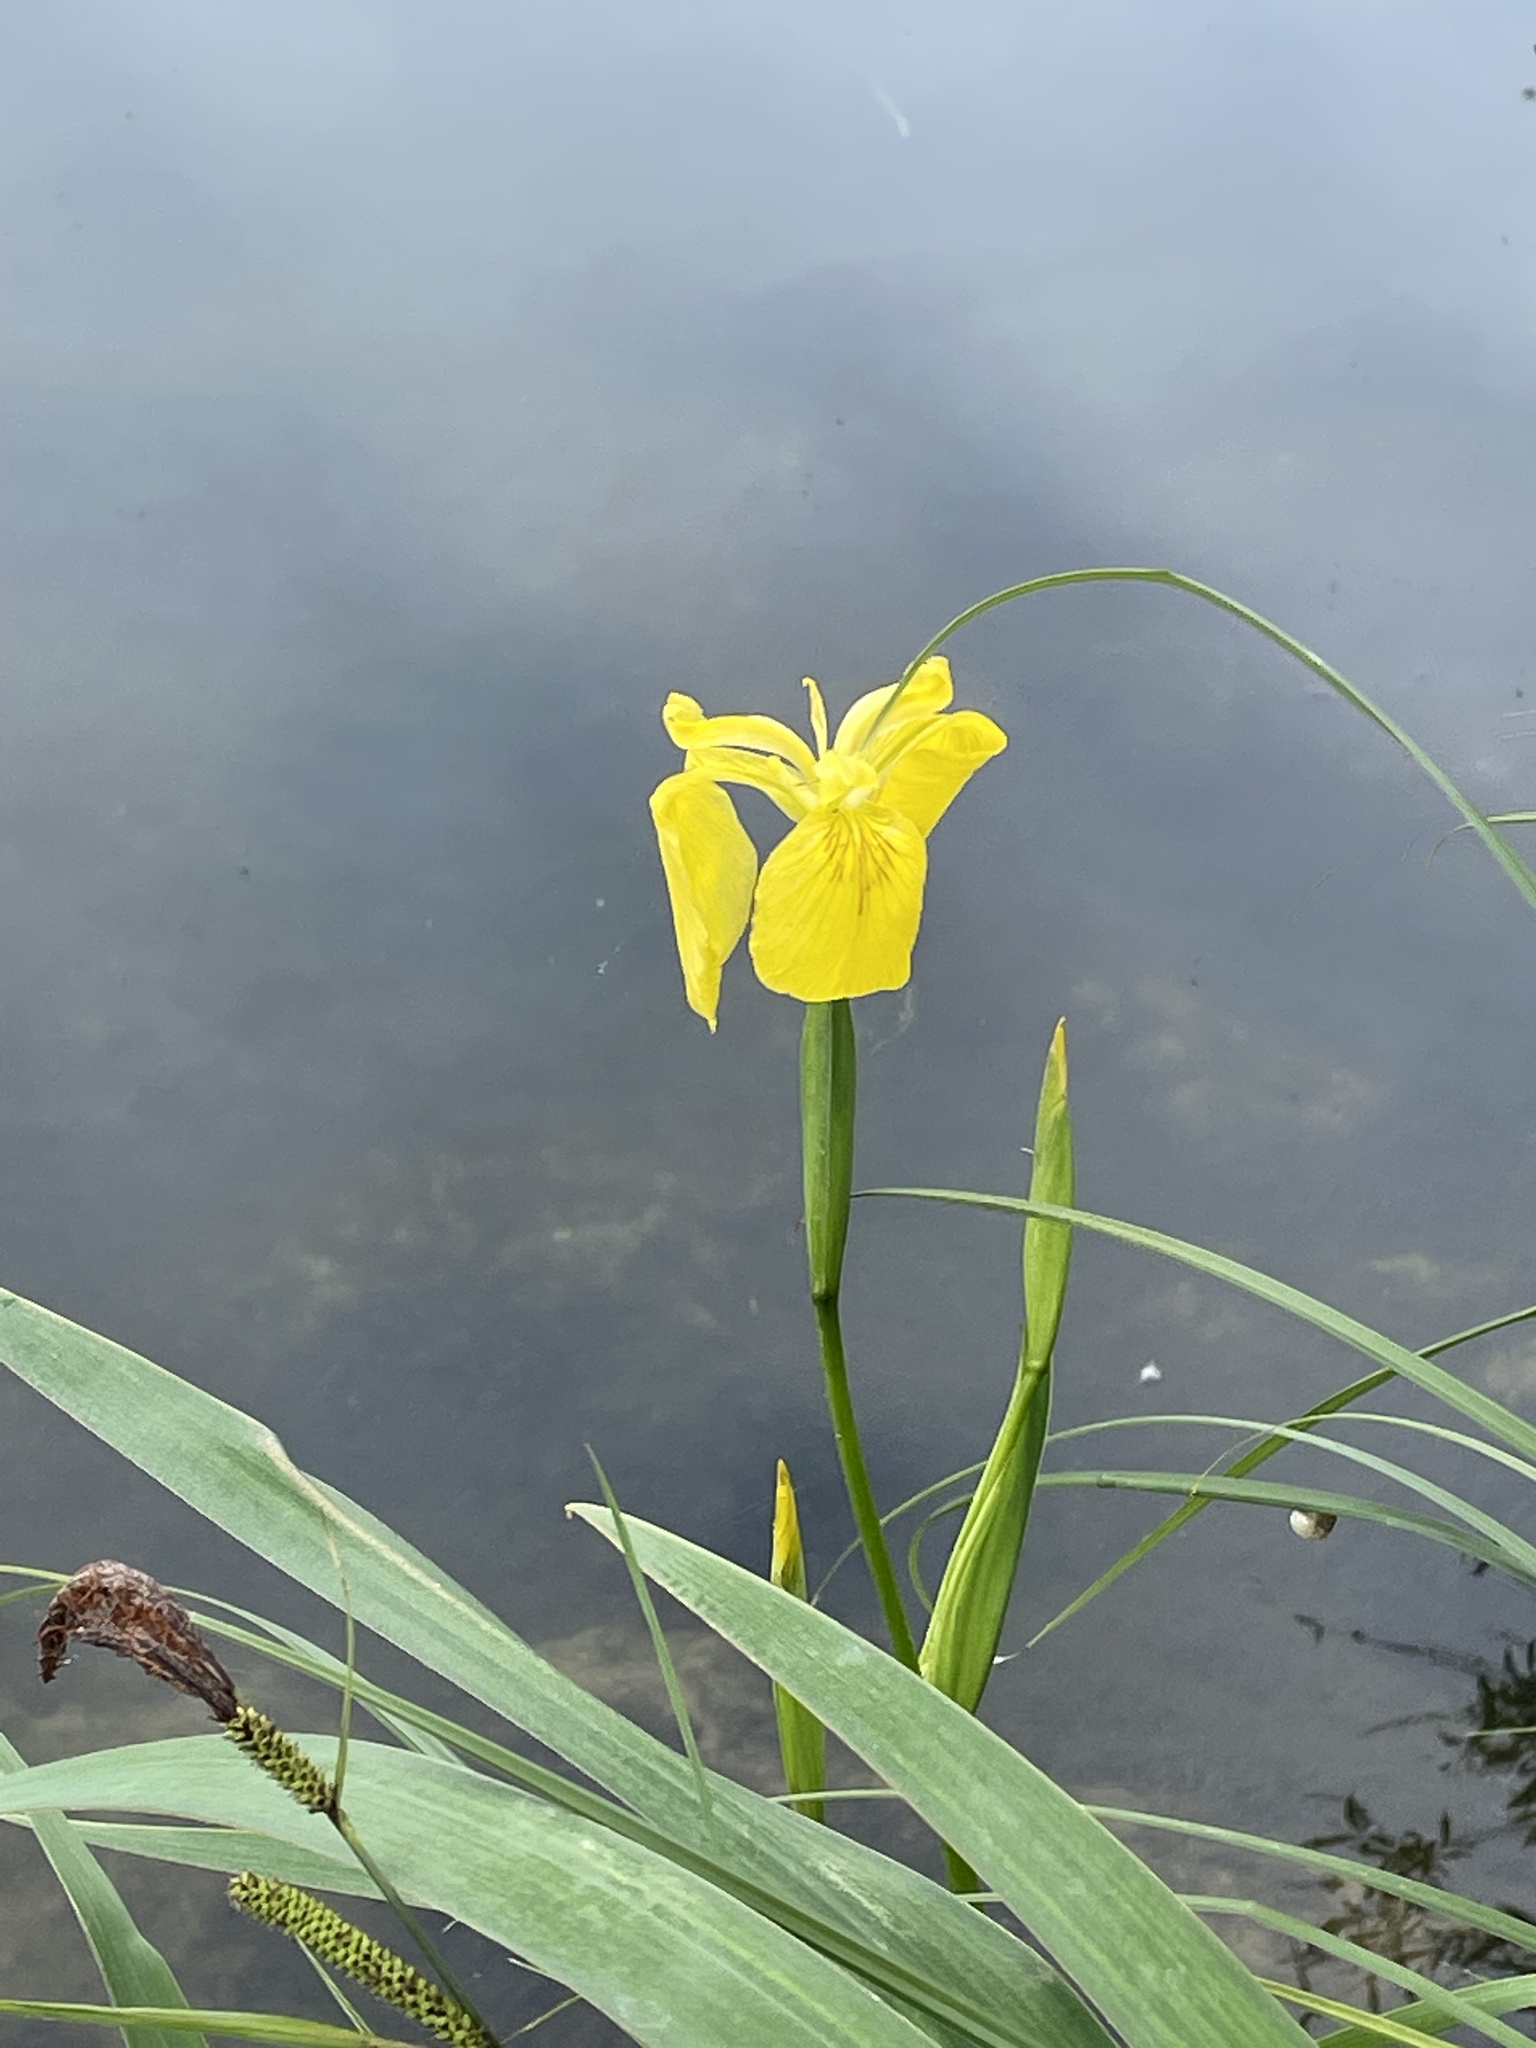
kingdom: Plantae
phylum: Tracheophyta
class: Liliopsida
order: Asparagales
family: Iridaceae
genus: Iris
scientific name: Iris pseudacorus
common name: Yellow flag
